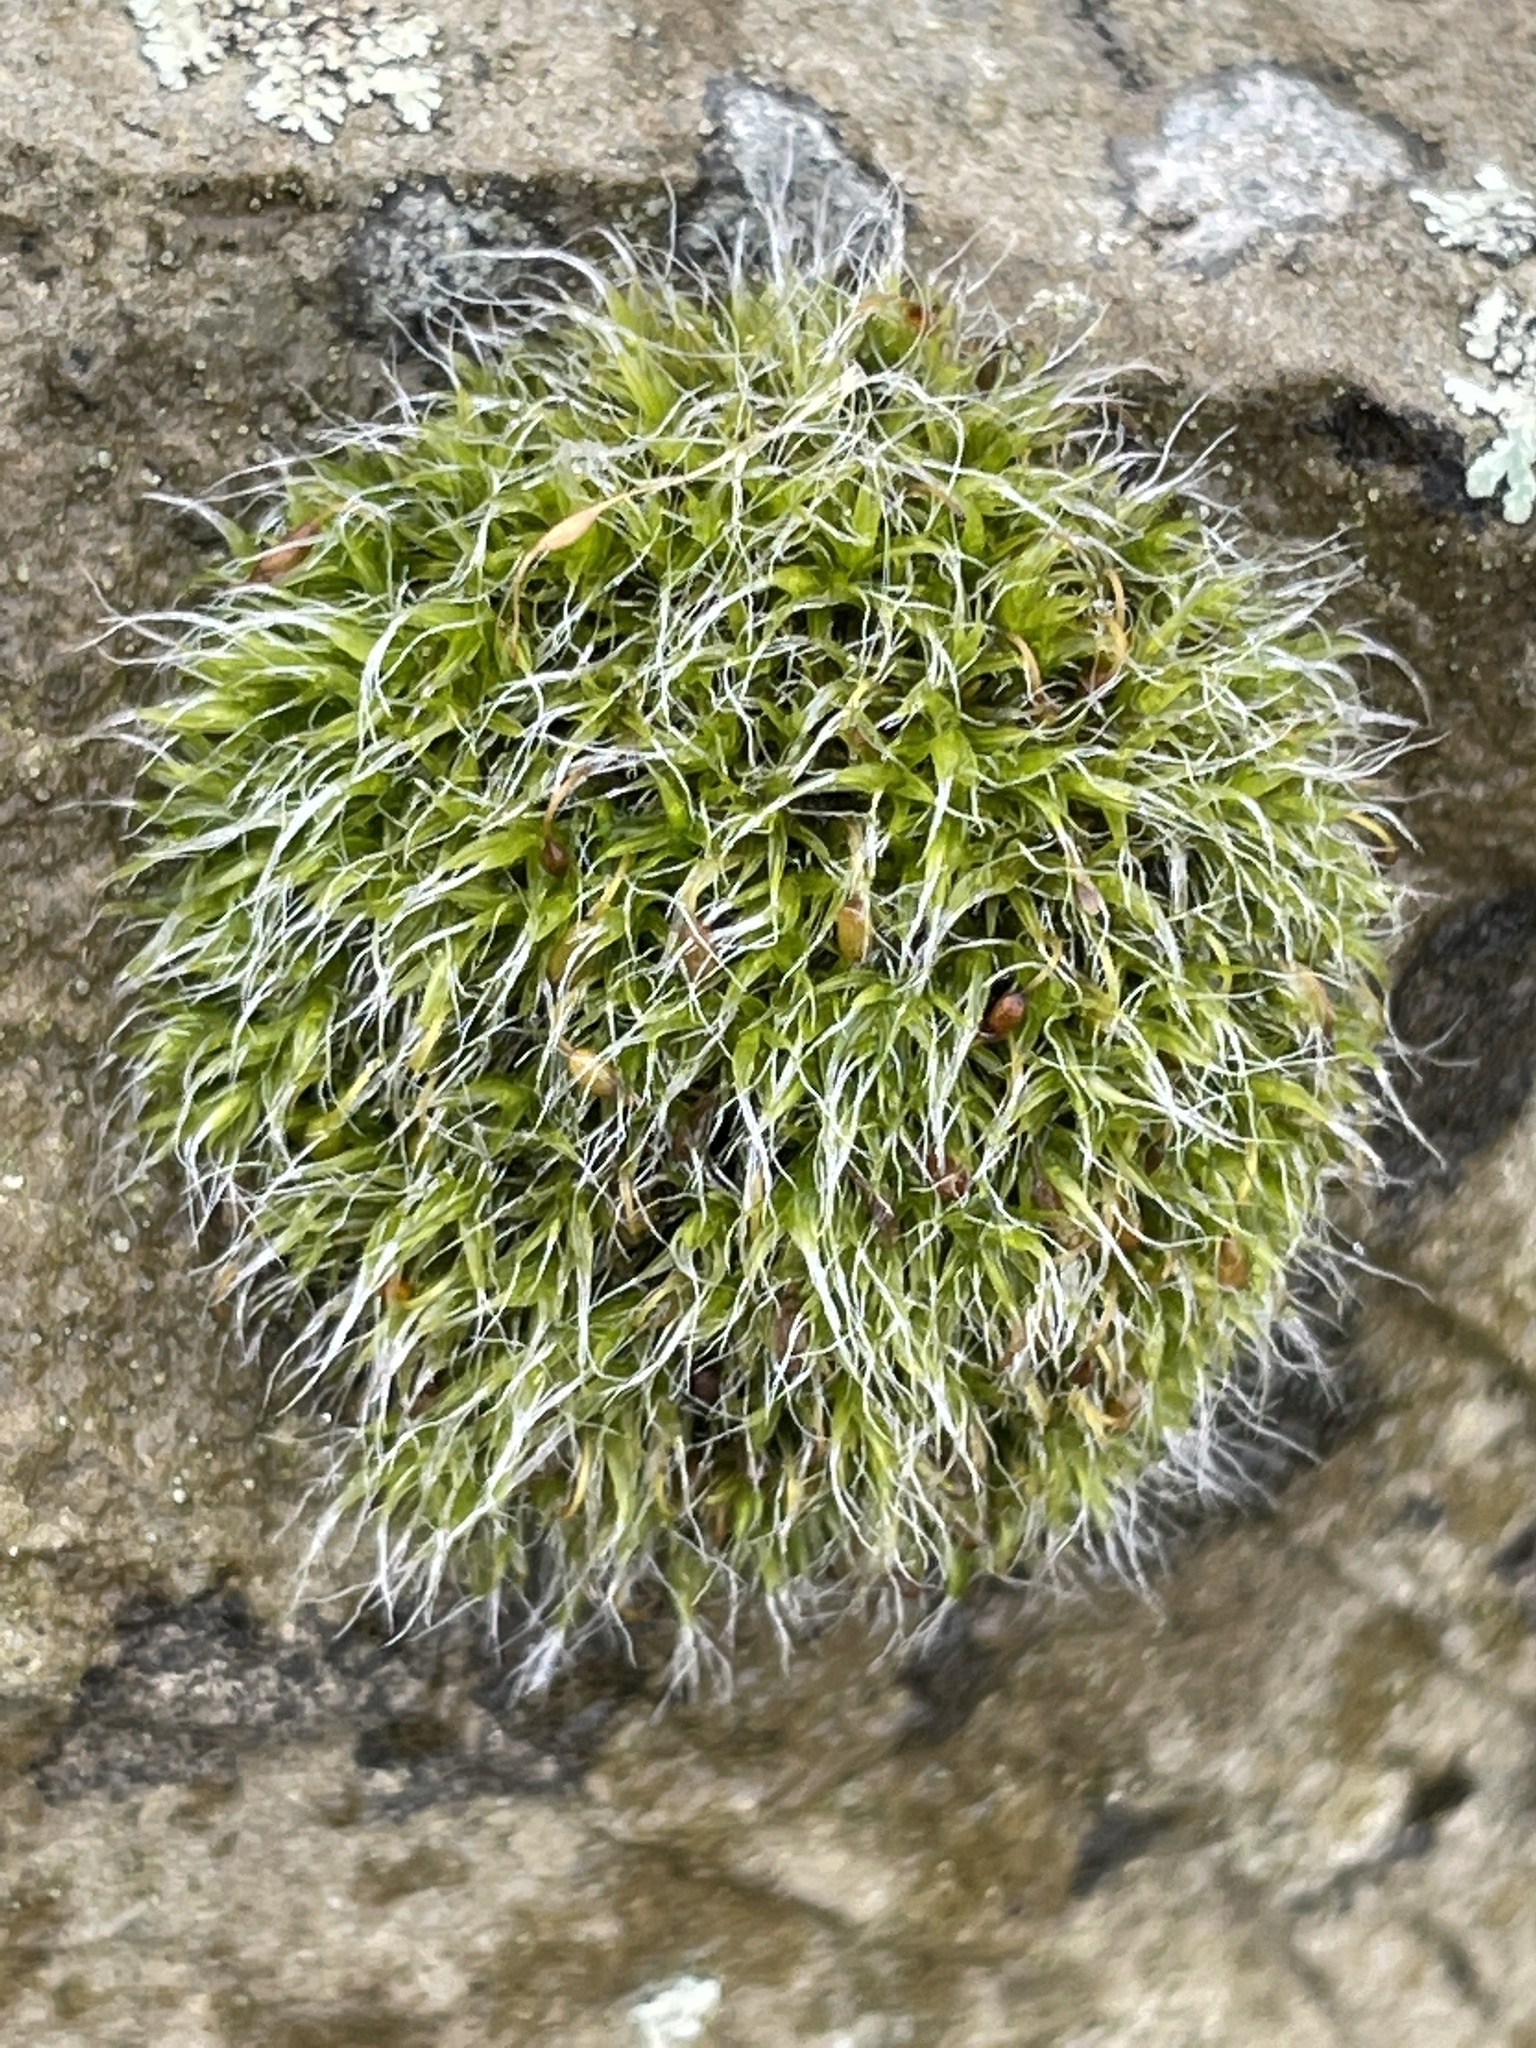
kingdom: Plantae
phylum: Bryophyta
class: Bryopsida
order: Grimmiales
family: Grimmiaceae
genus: Grimmia
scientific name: Grimmia pulvinata
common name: Grey-cushioned grimmia
